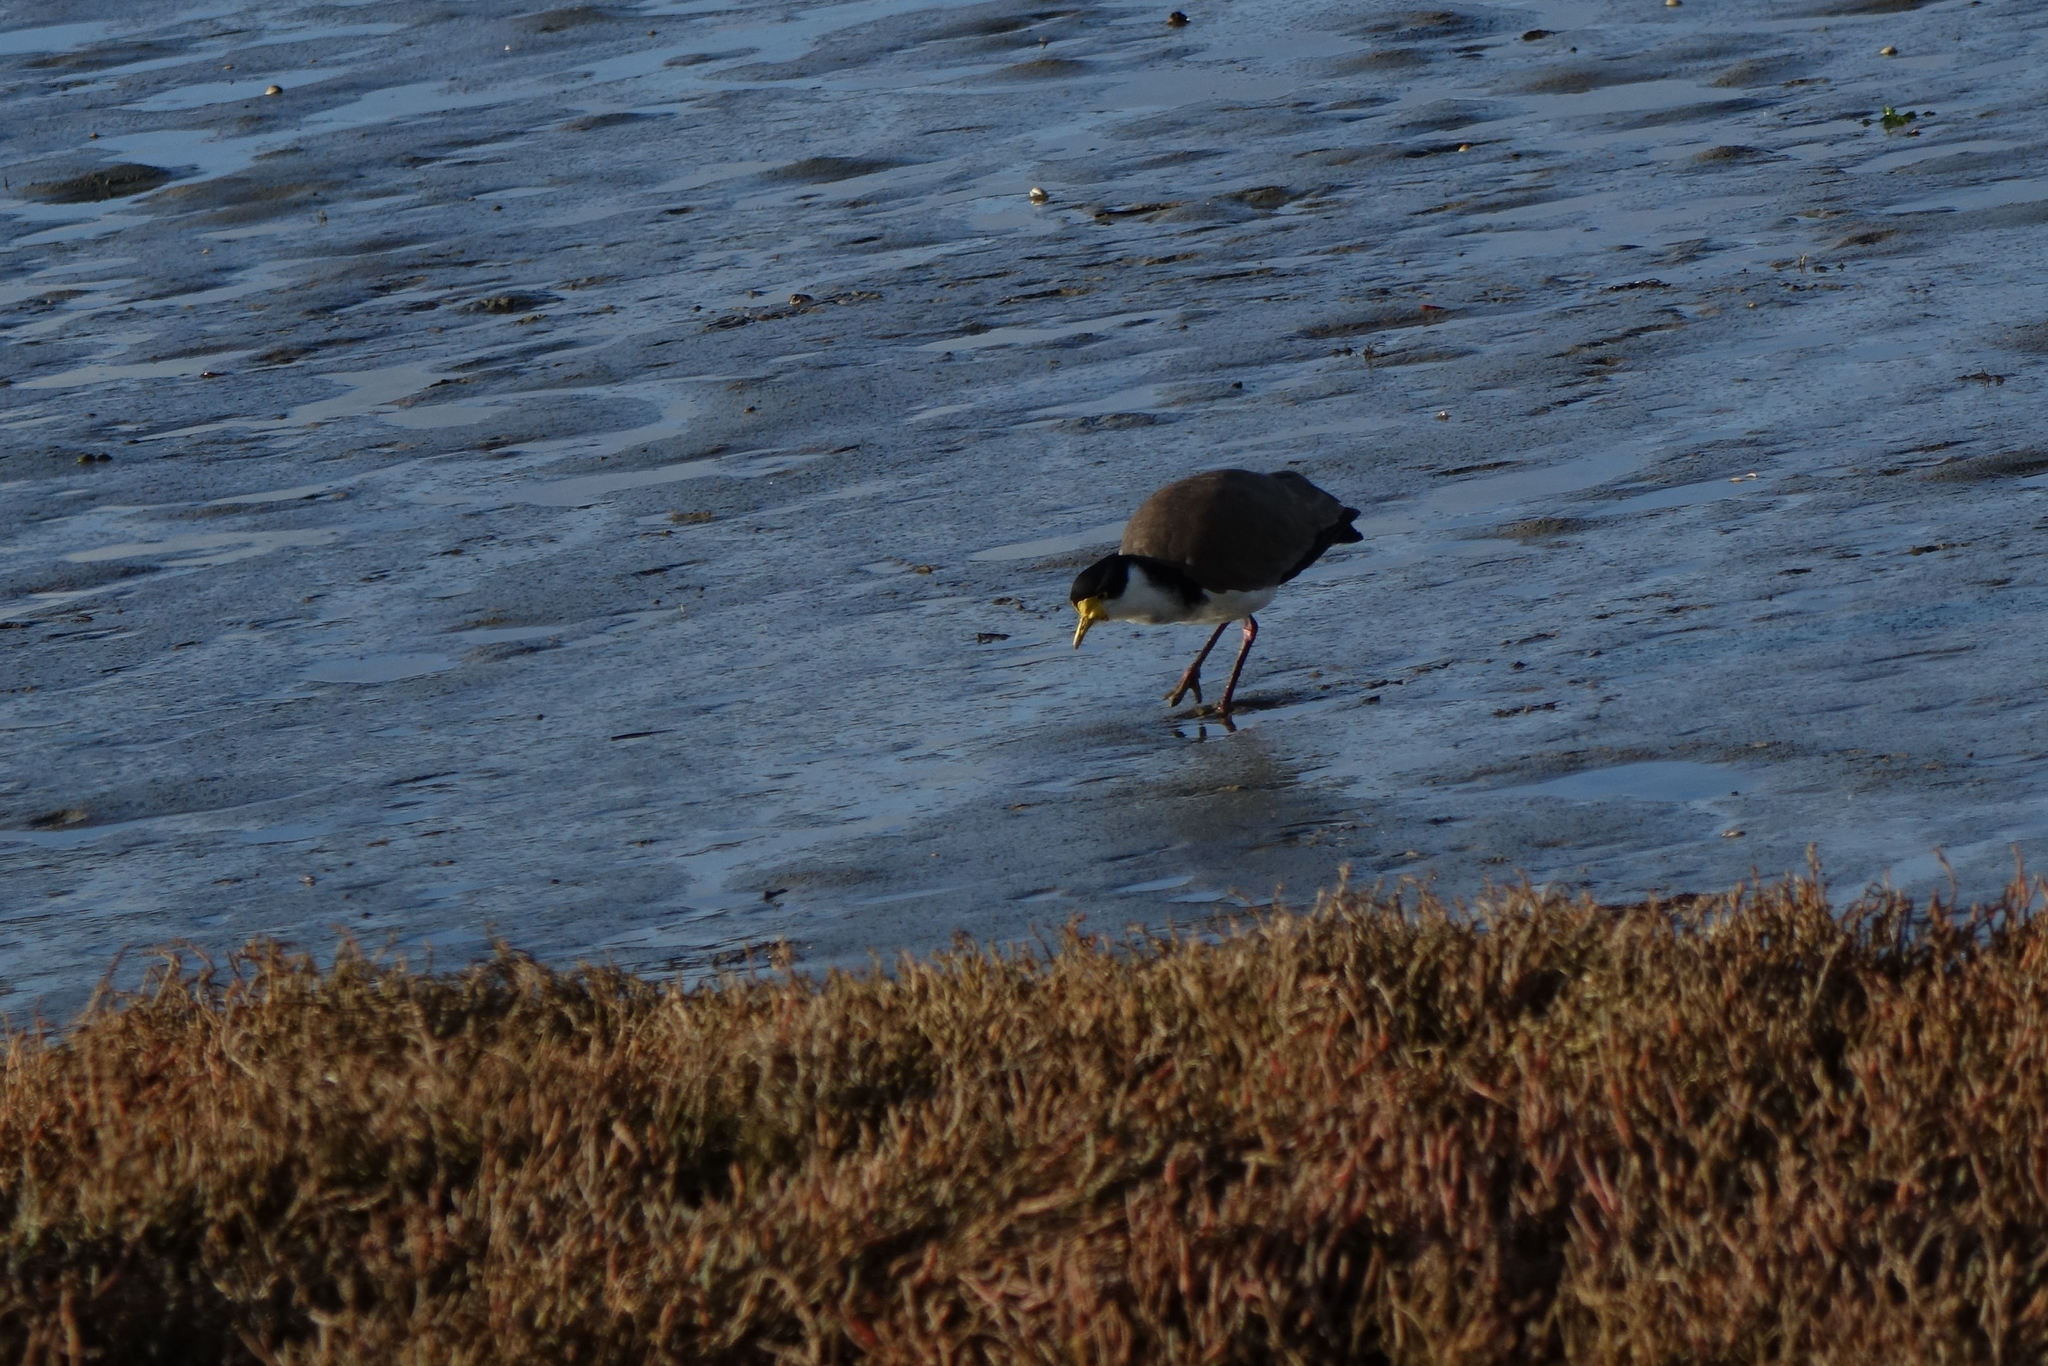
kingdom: Animalia
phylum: Chordata
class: Aves
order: Charadriiformes
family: Charadriidae
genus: Vanellus
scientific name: Vanellus miles
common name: Masked lapwing
